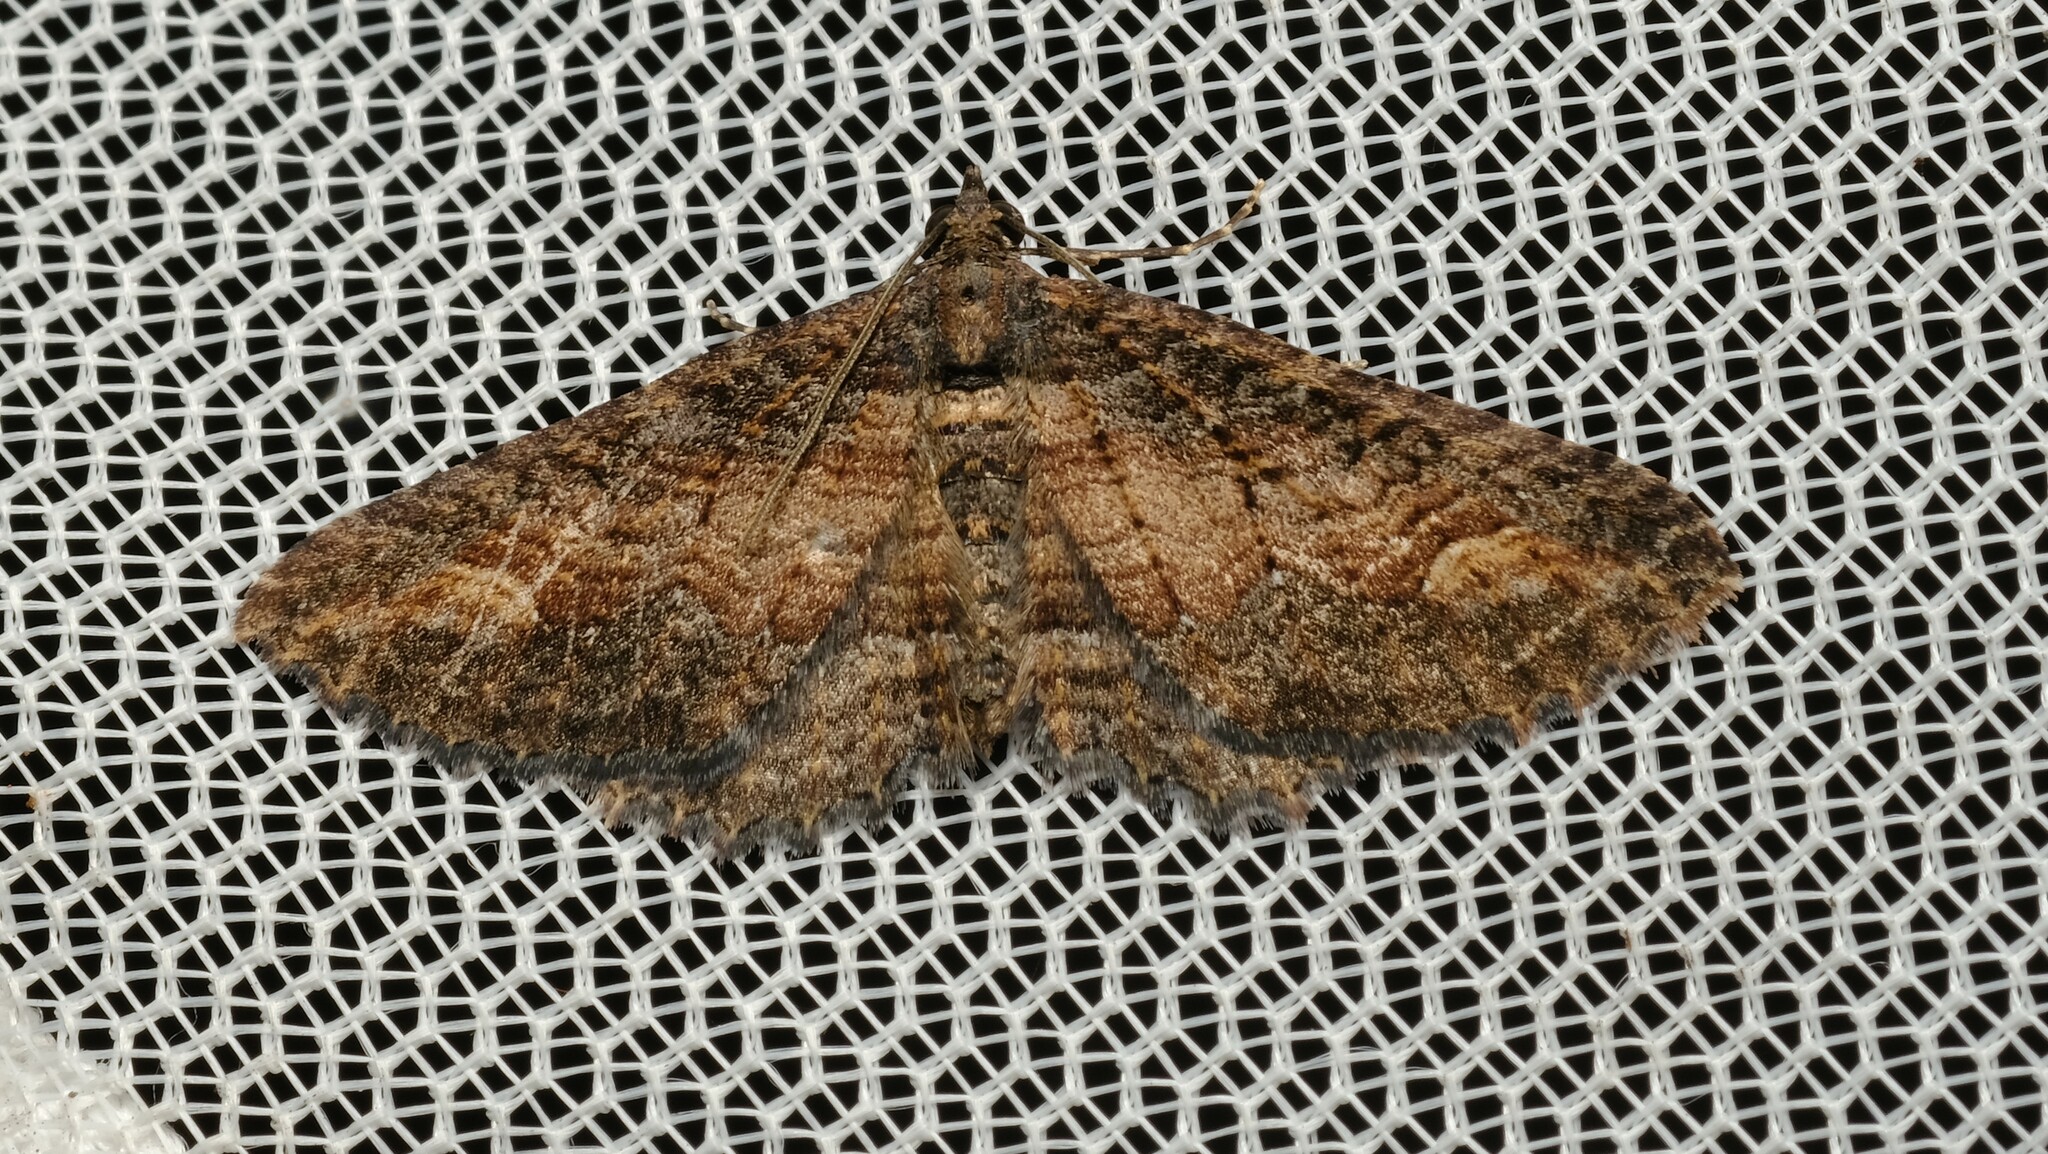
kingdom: Animalia
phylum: Arthropoda
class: Insecta
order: Lepidoptera
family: Geometridae
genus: Eupithecia
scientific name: Eupithecia Eucymatoge scotodes
